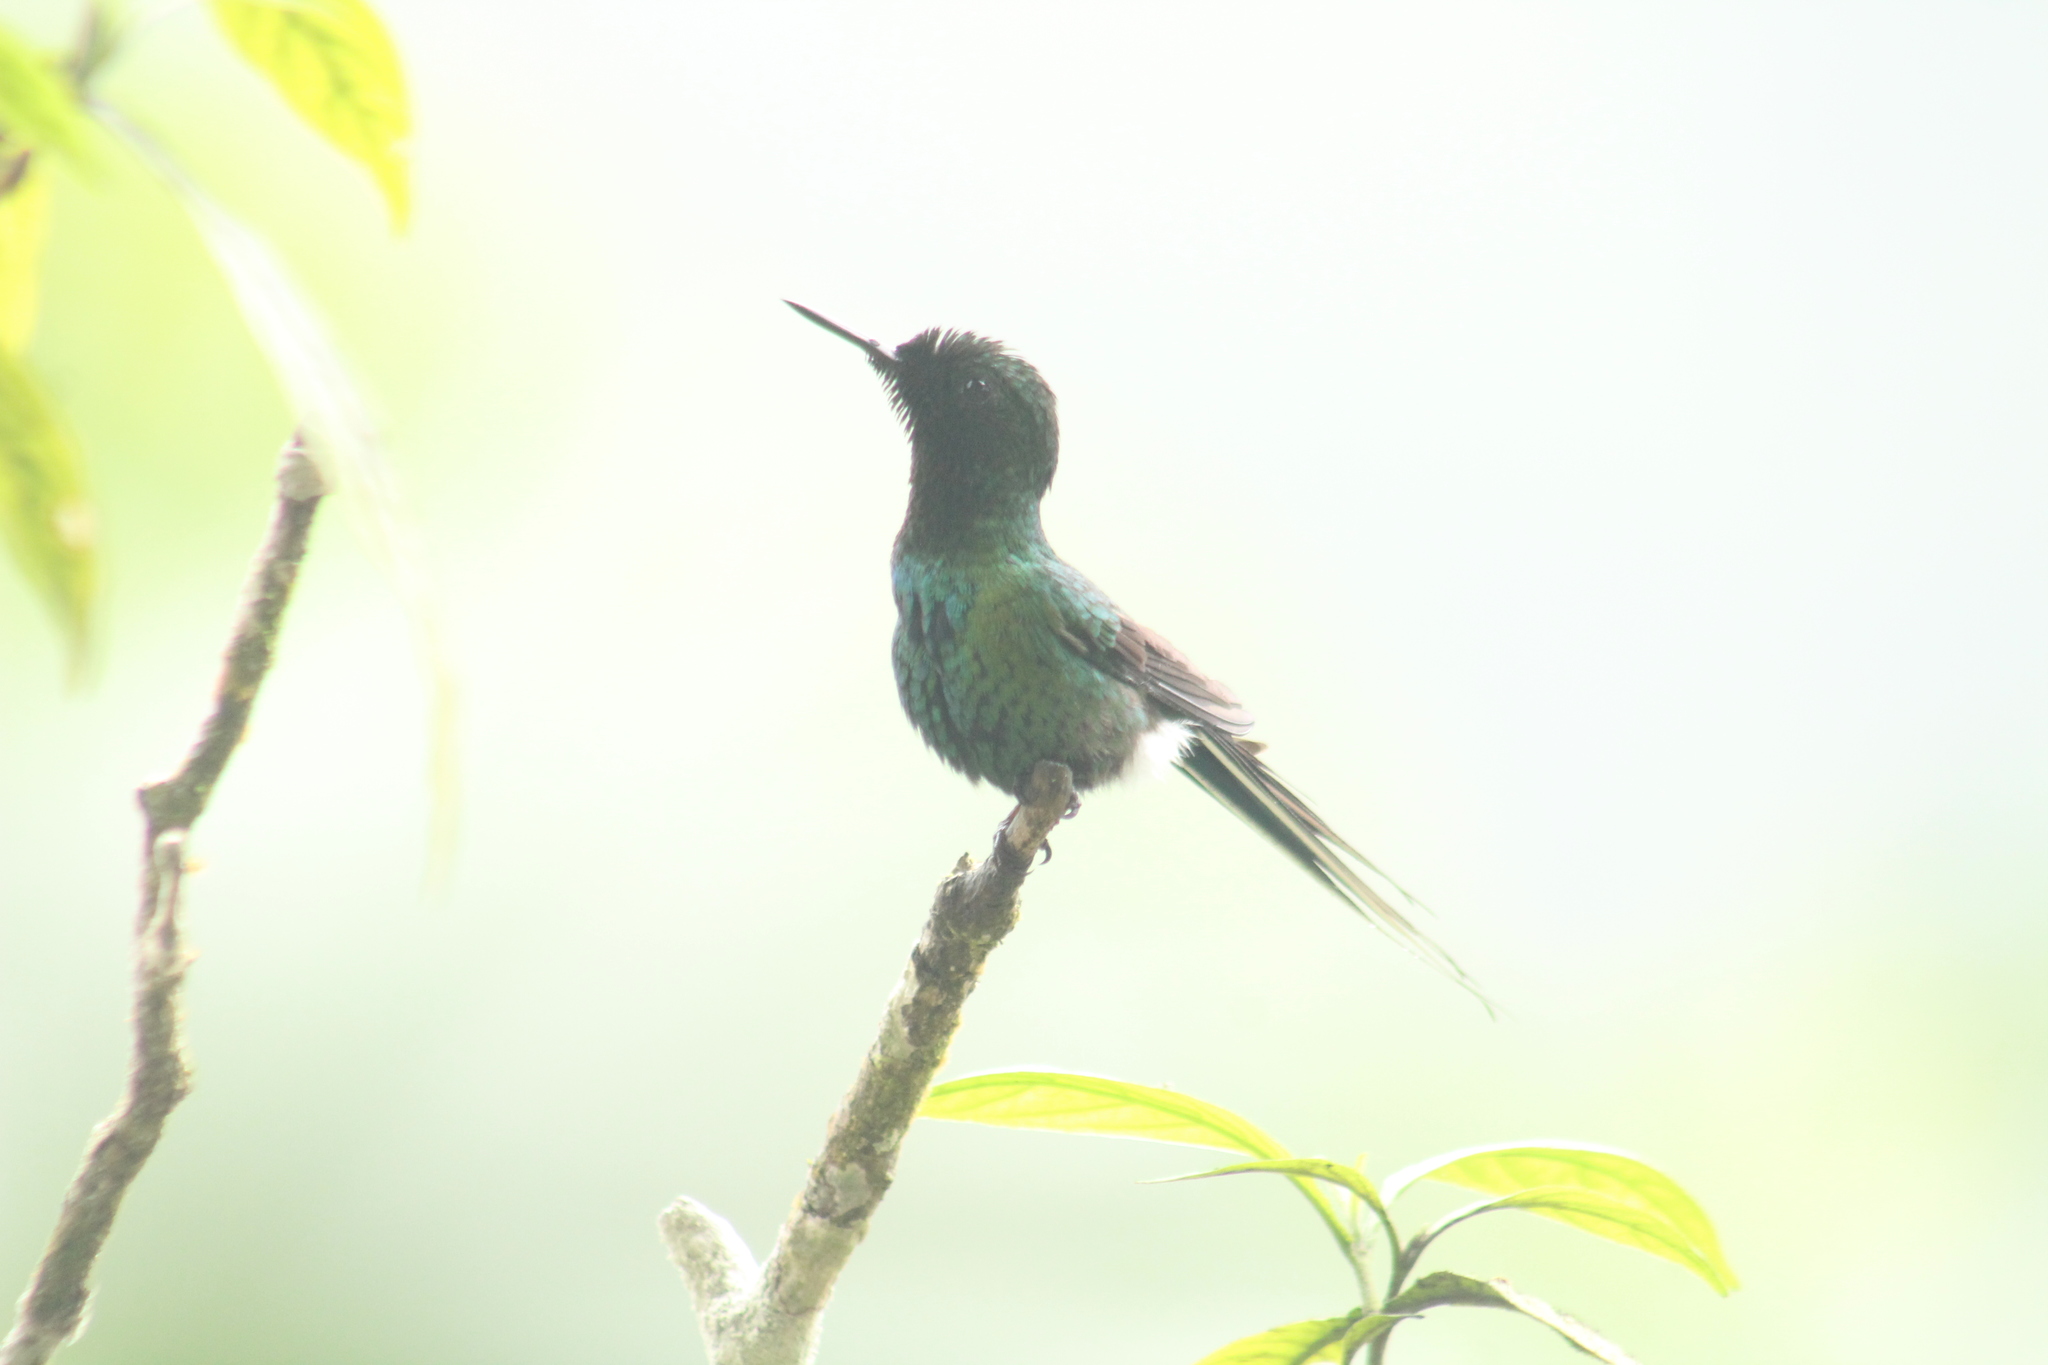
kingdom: Animalia
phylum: Chordata
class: Aves
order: Apodiformes
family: Trochilidae
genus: Discosura
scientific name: Discosura conversii
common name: Green thorntail
